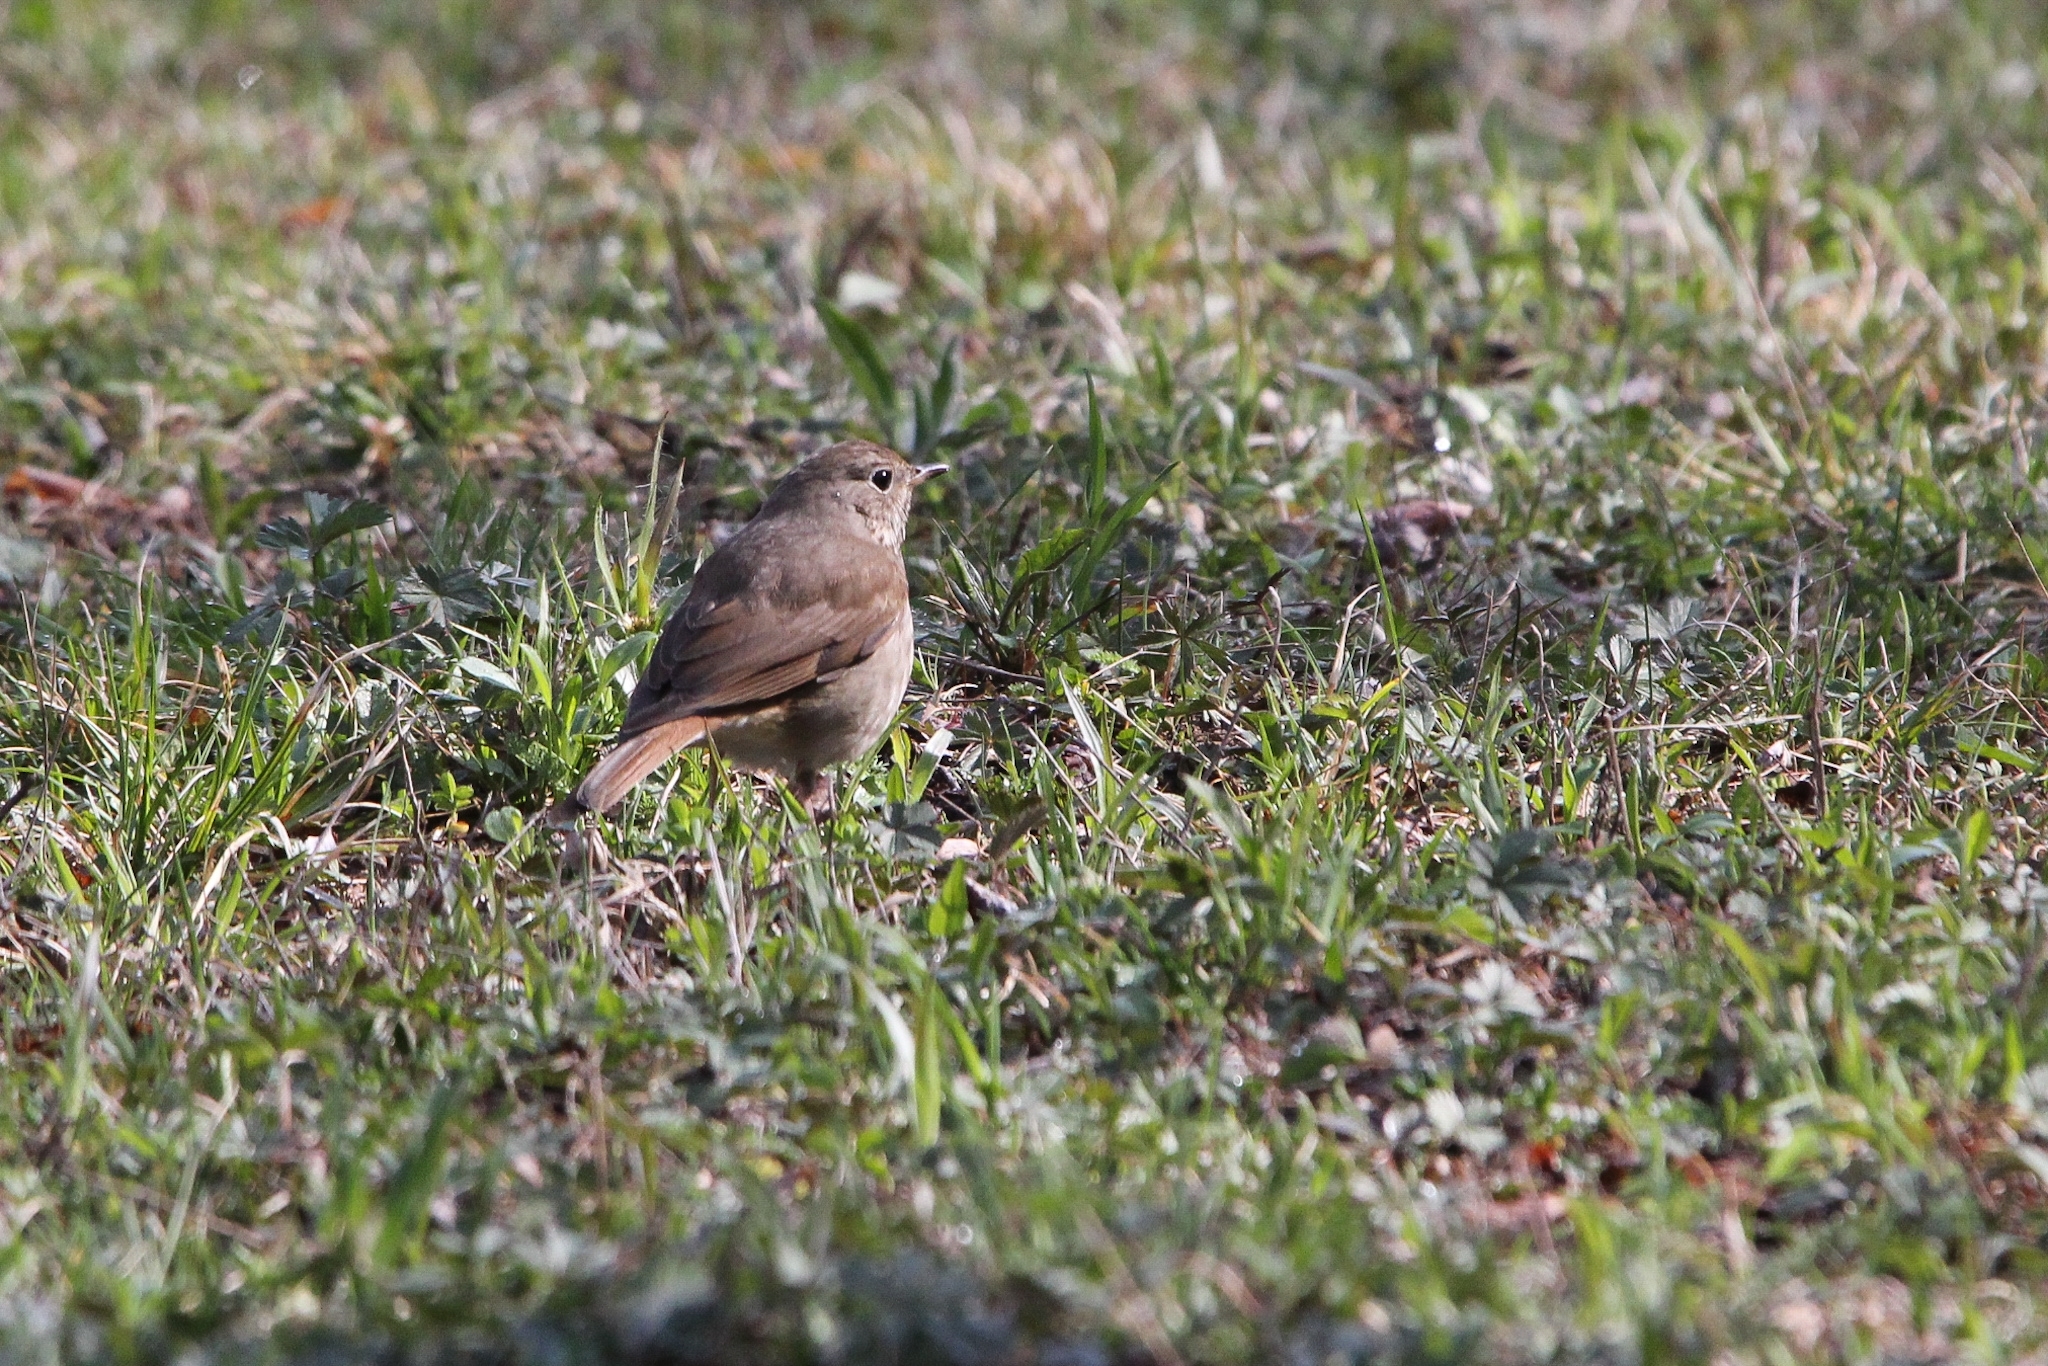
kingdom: Animalia
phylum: Chordata
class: Aves
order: Passeriformes
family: Turdidae
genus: Catharus
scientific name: Catharus guttatus
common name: Hermit thrush
